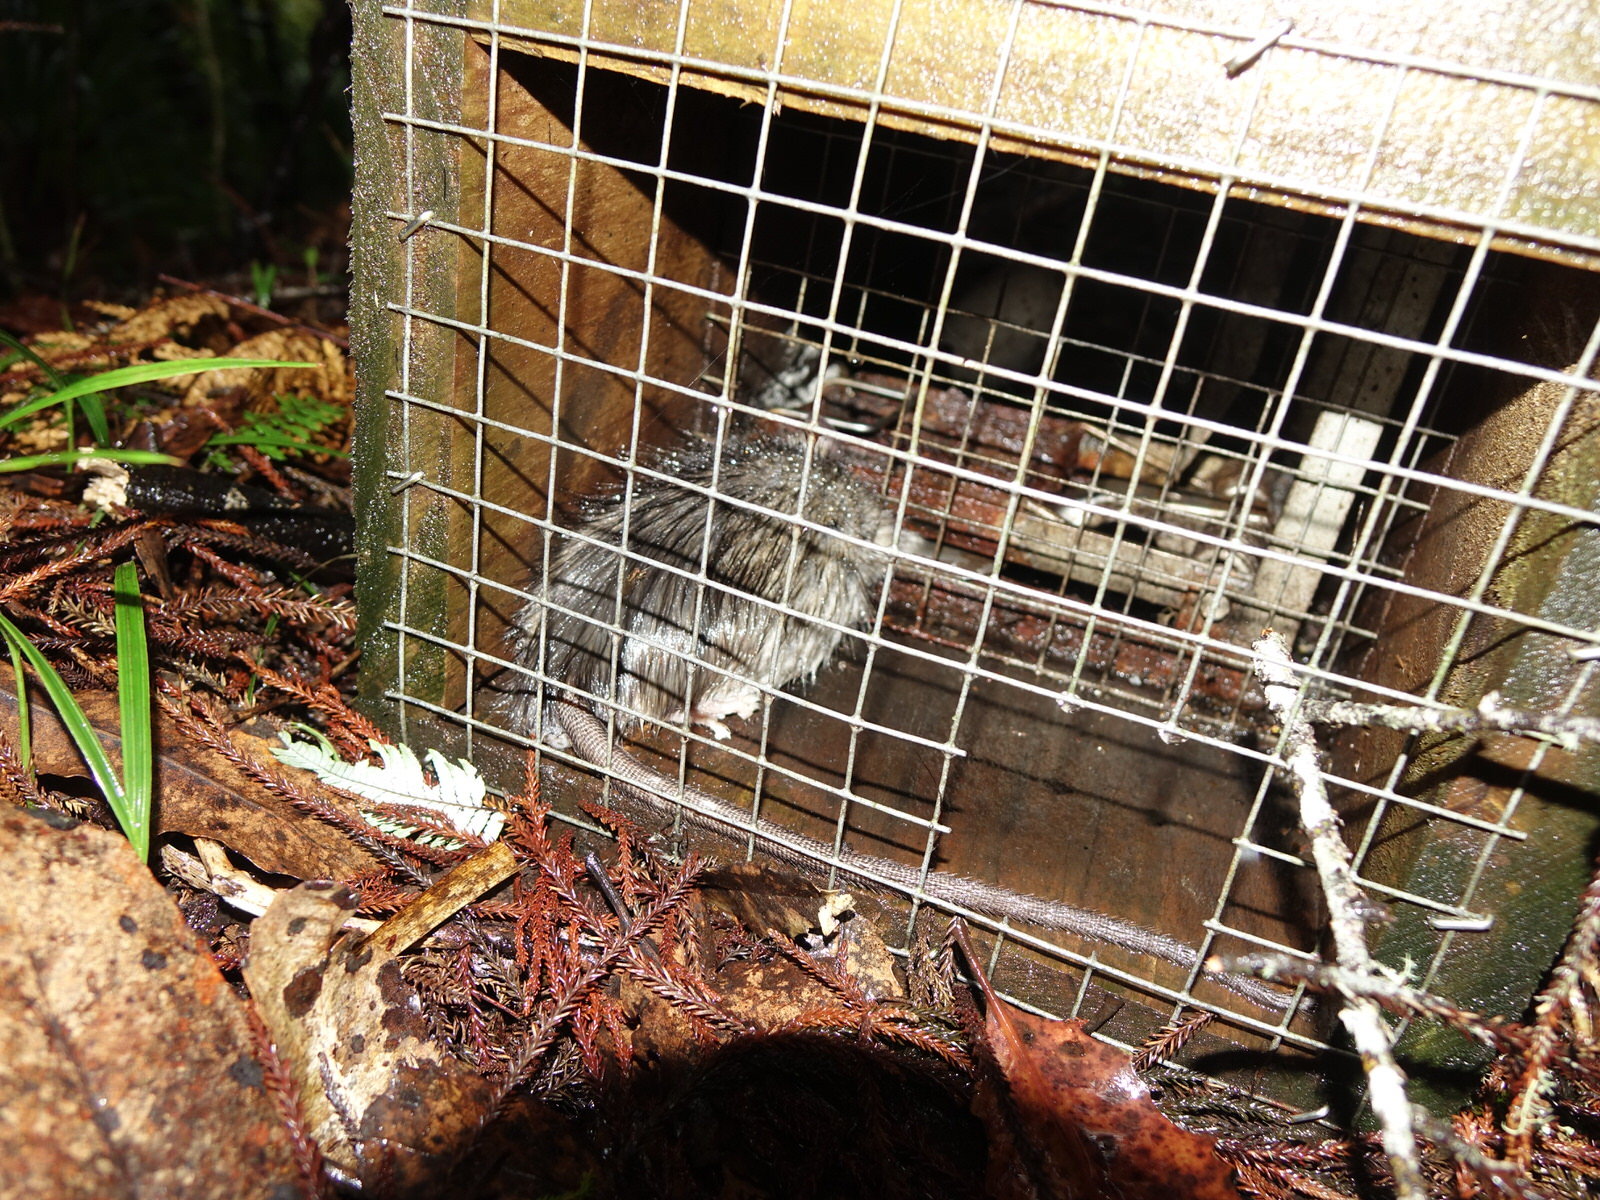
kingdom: Animalia
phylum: Chordata
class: Mammalia
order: Rodentia
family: Muridae
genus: Rattus
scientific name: Rattus rattus
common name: Black rat
